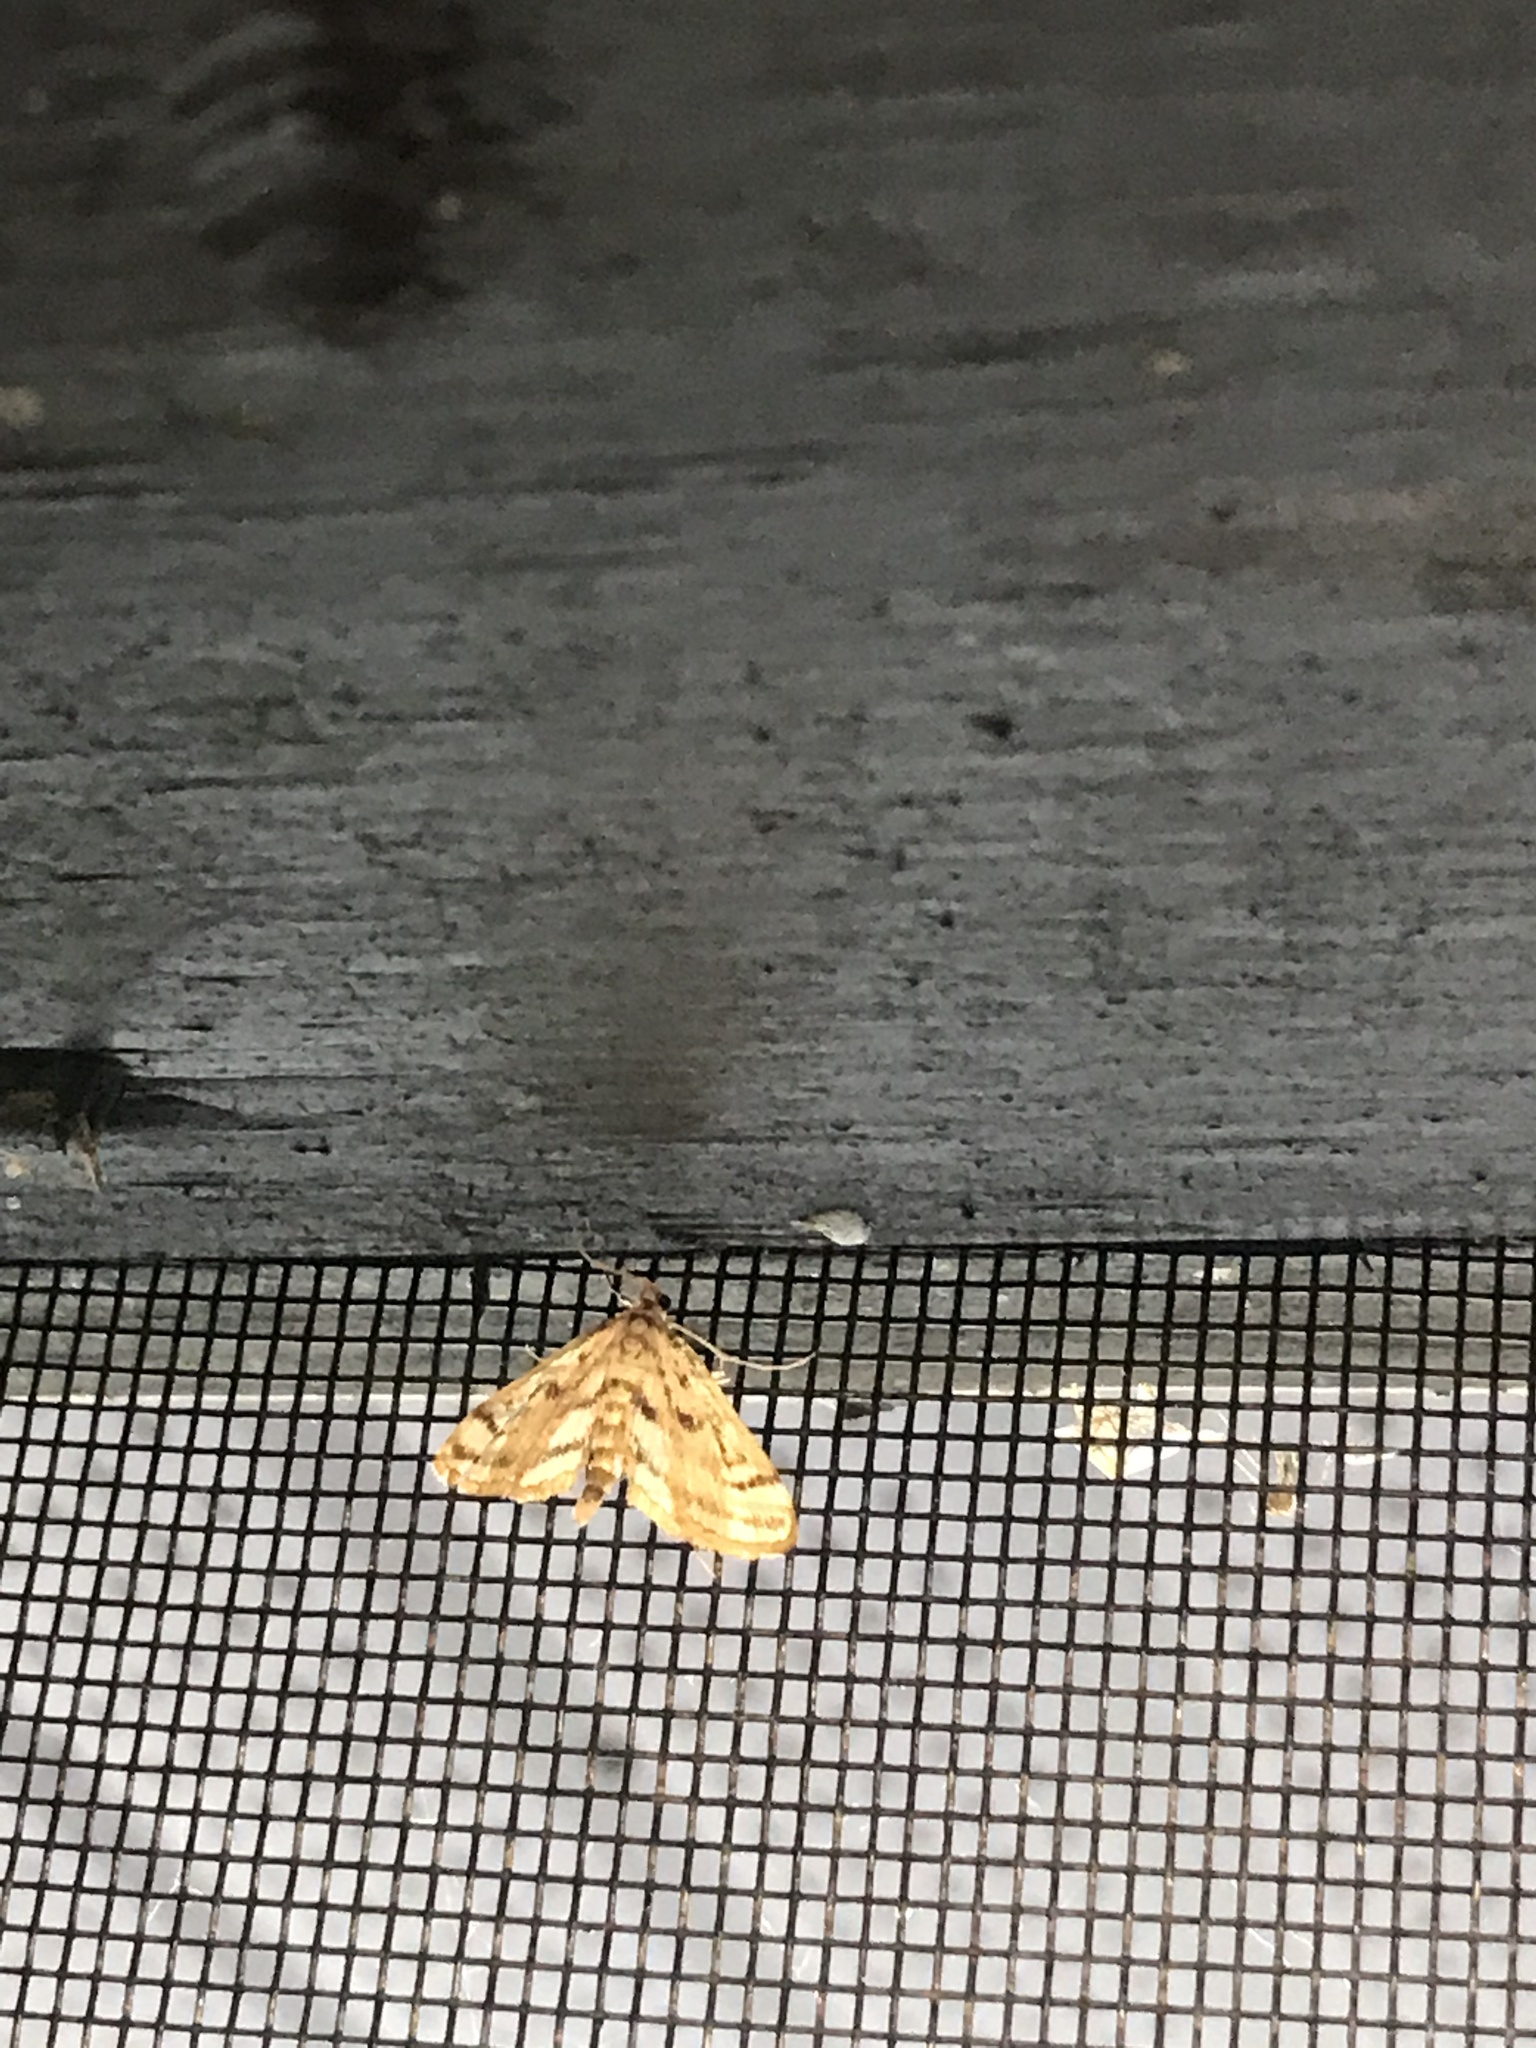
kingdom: Animalia
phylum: Arthropoda
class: Insecta
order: Lepidoptera
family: Crambidae
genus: Parapoynx
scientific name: Parapoynx badiusalis
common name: Chestnut-marked pondweed moth
